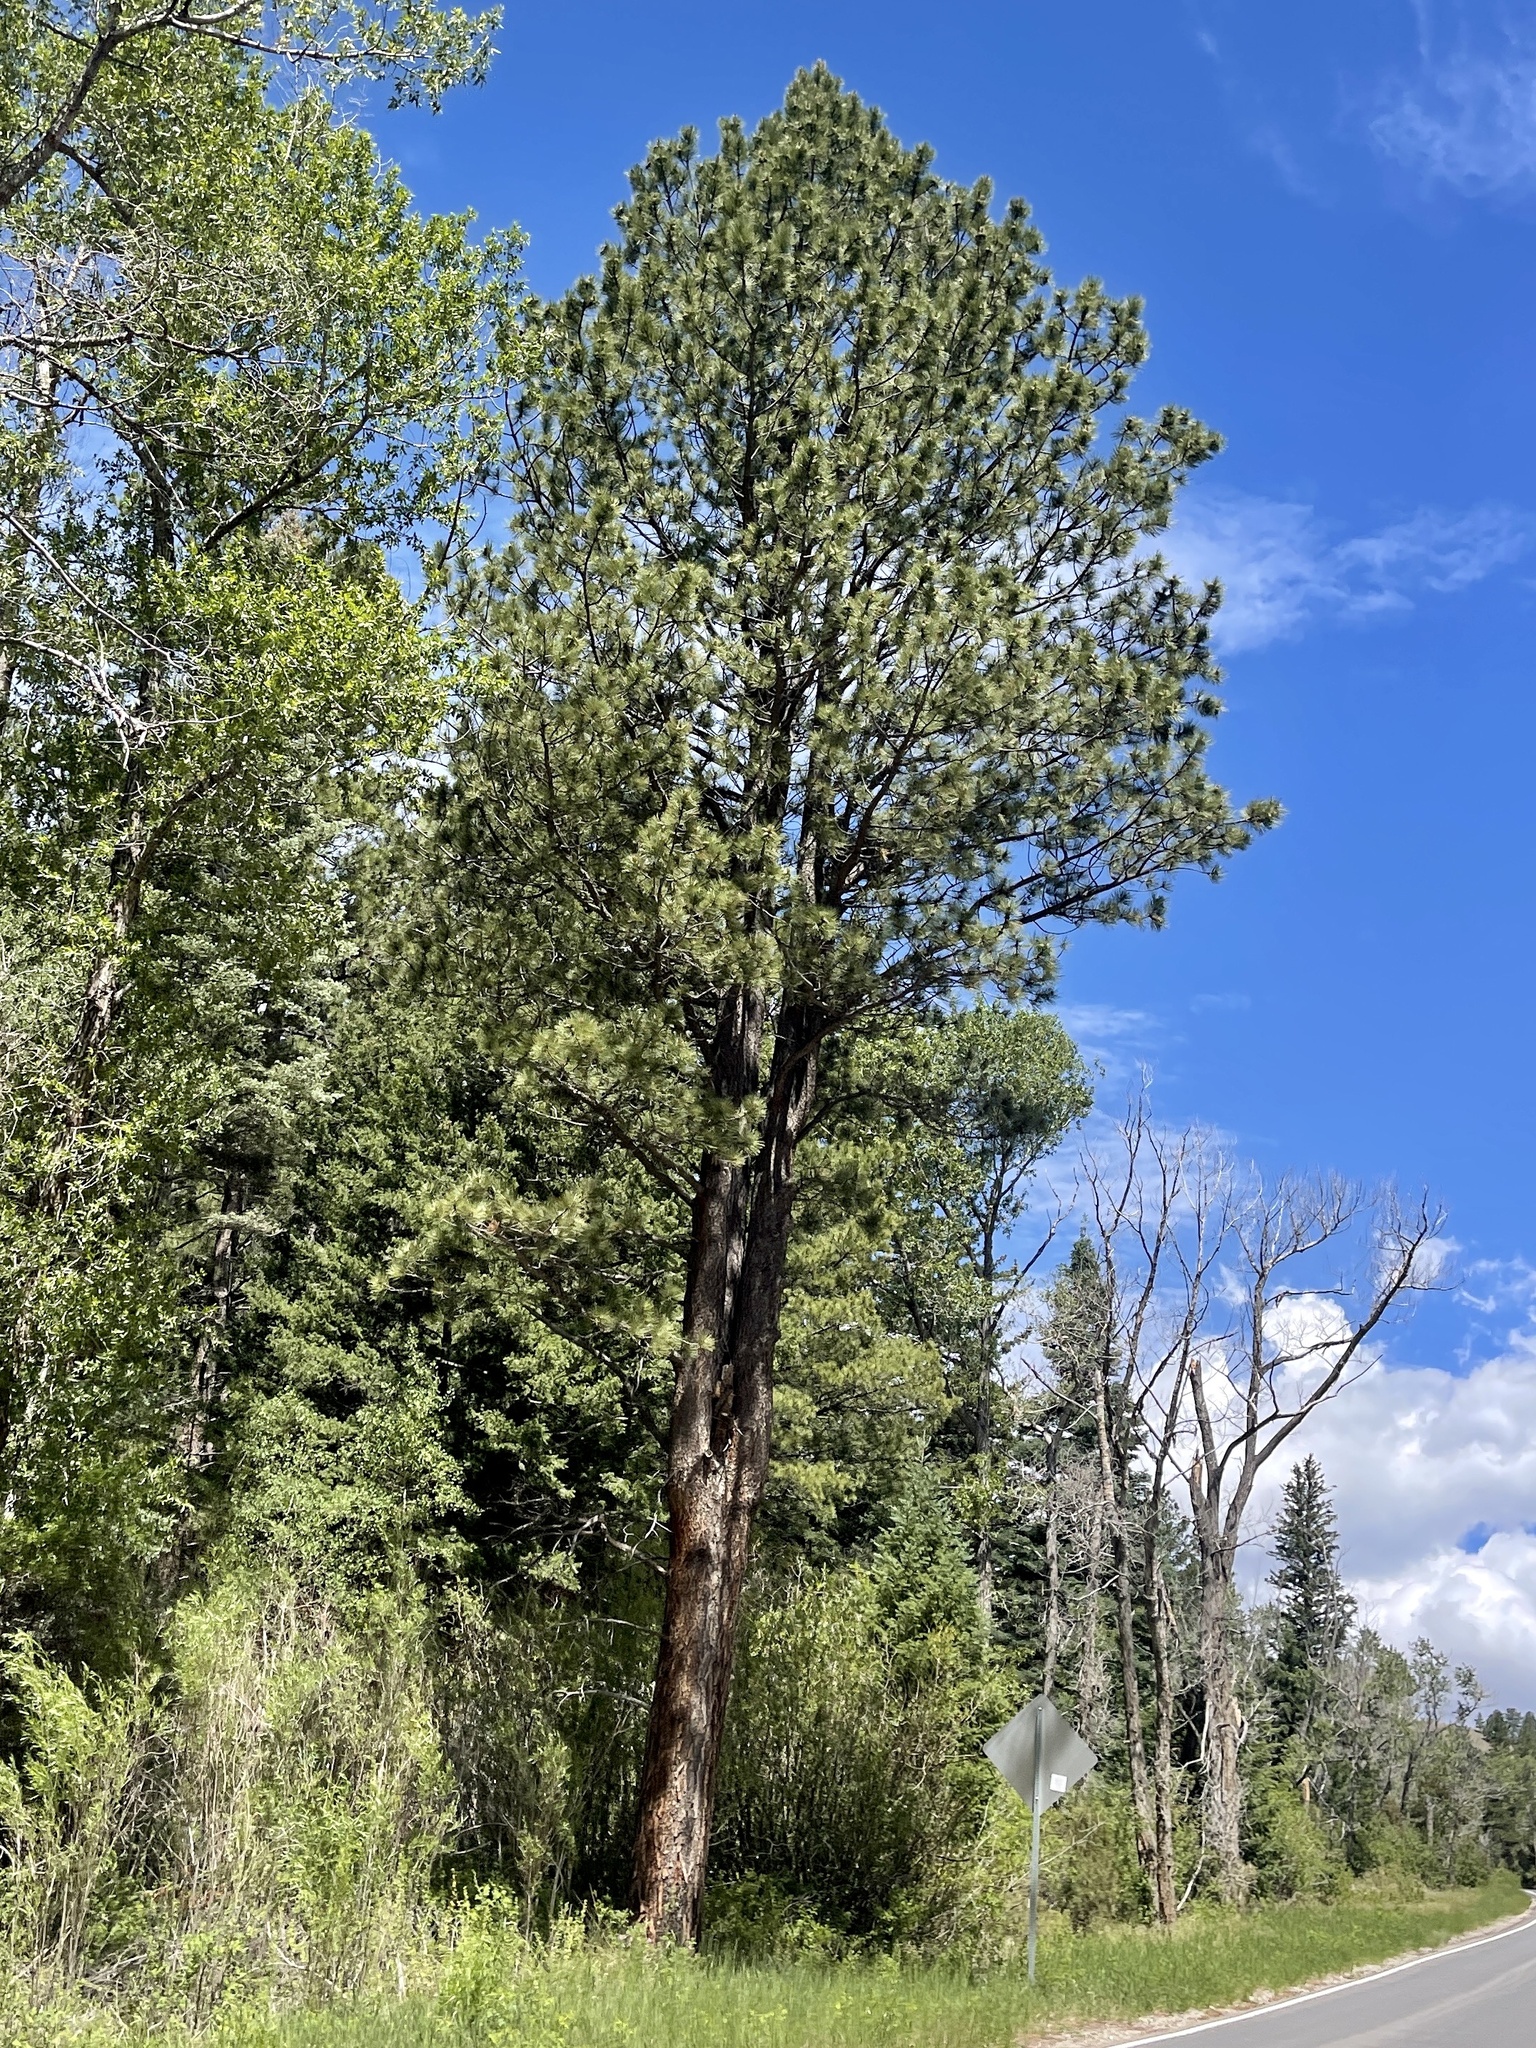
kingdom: Plantae
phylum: Tracheophyta
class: Pinopsida
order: Pinales
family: Pinaceae
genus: Pinus
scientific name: Pinus ponderosa
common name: Western yellow-pine
